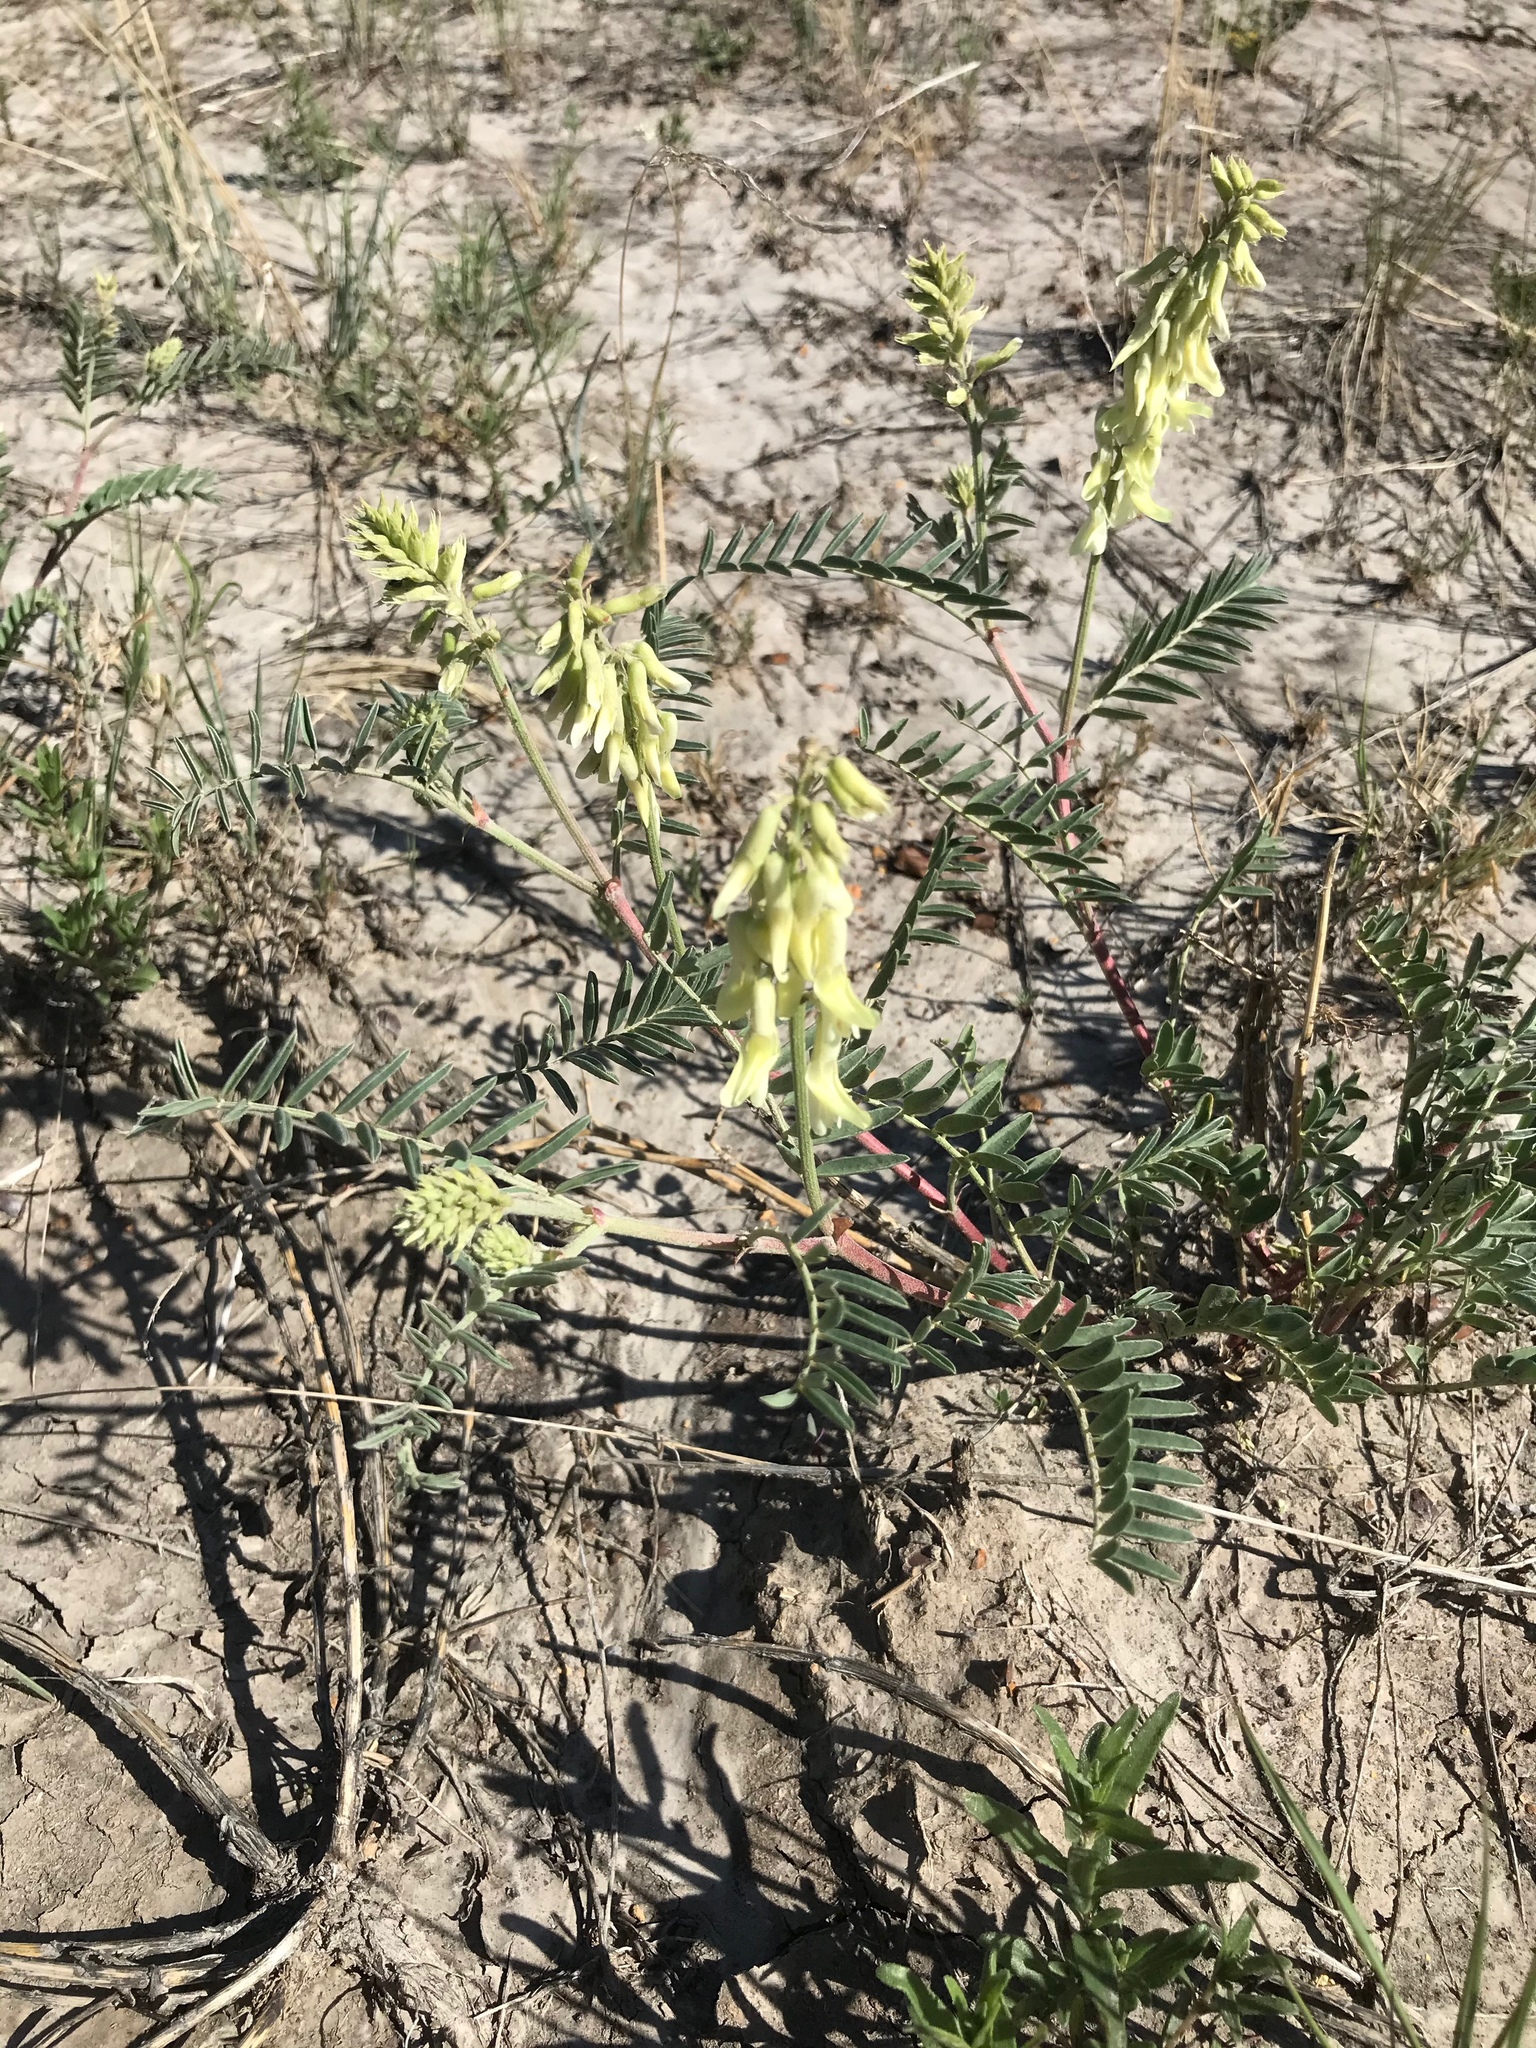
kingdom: Plantae
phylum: Tracheophyta
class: Magnoliopsida
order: Fabales
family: Fabaceae
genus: Astragalus
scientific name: Astragalus racemosus
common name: Alkali milk-vetch
